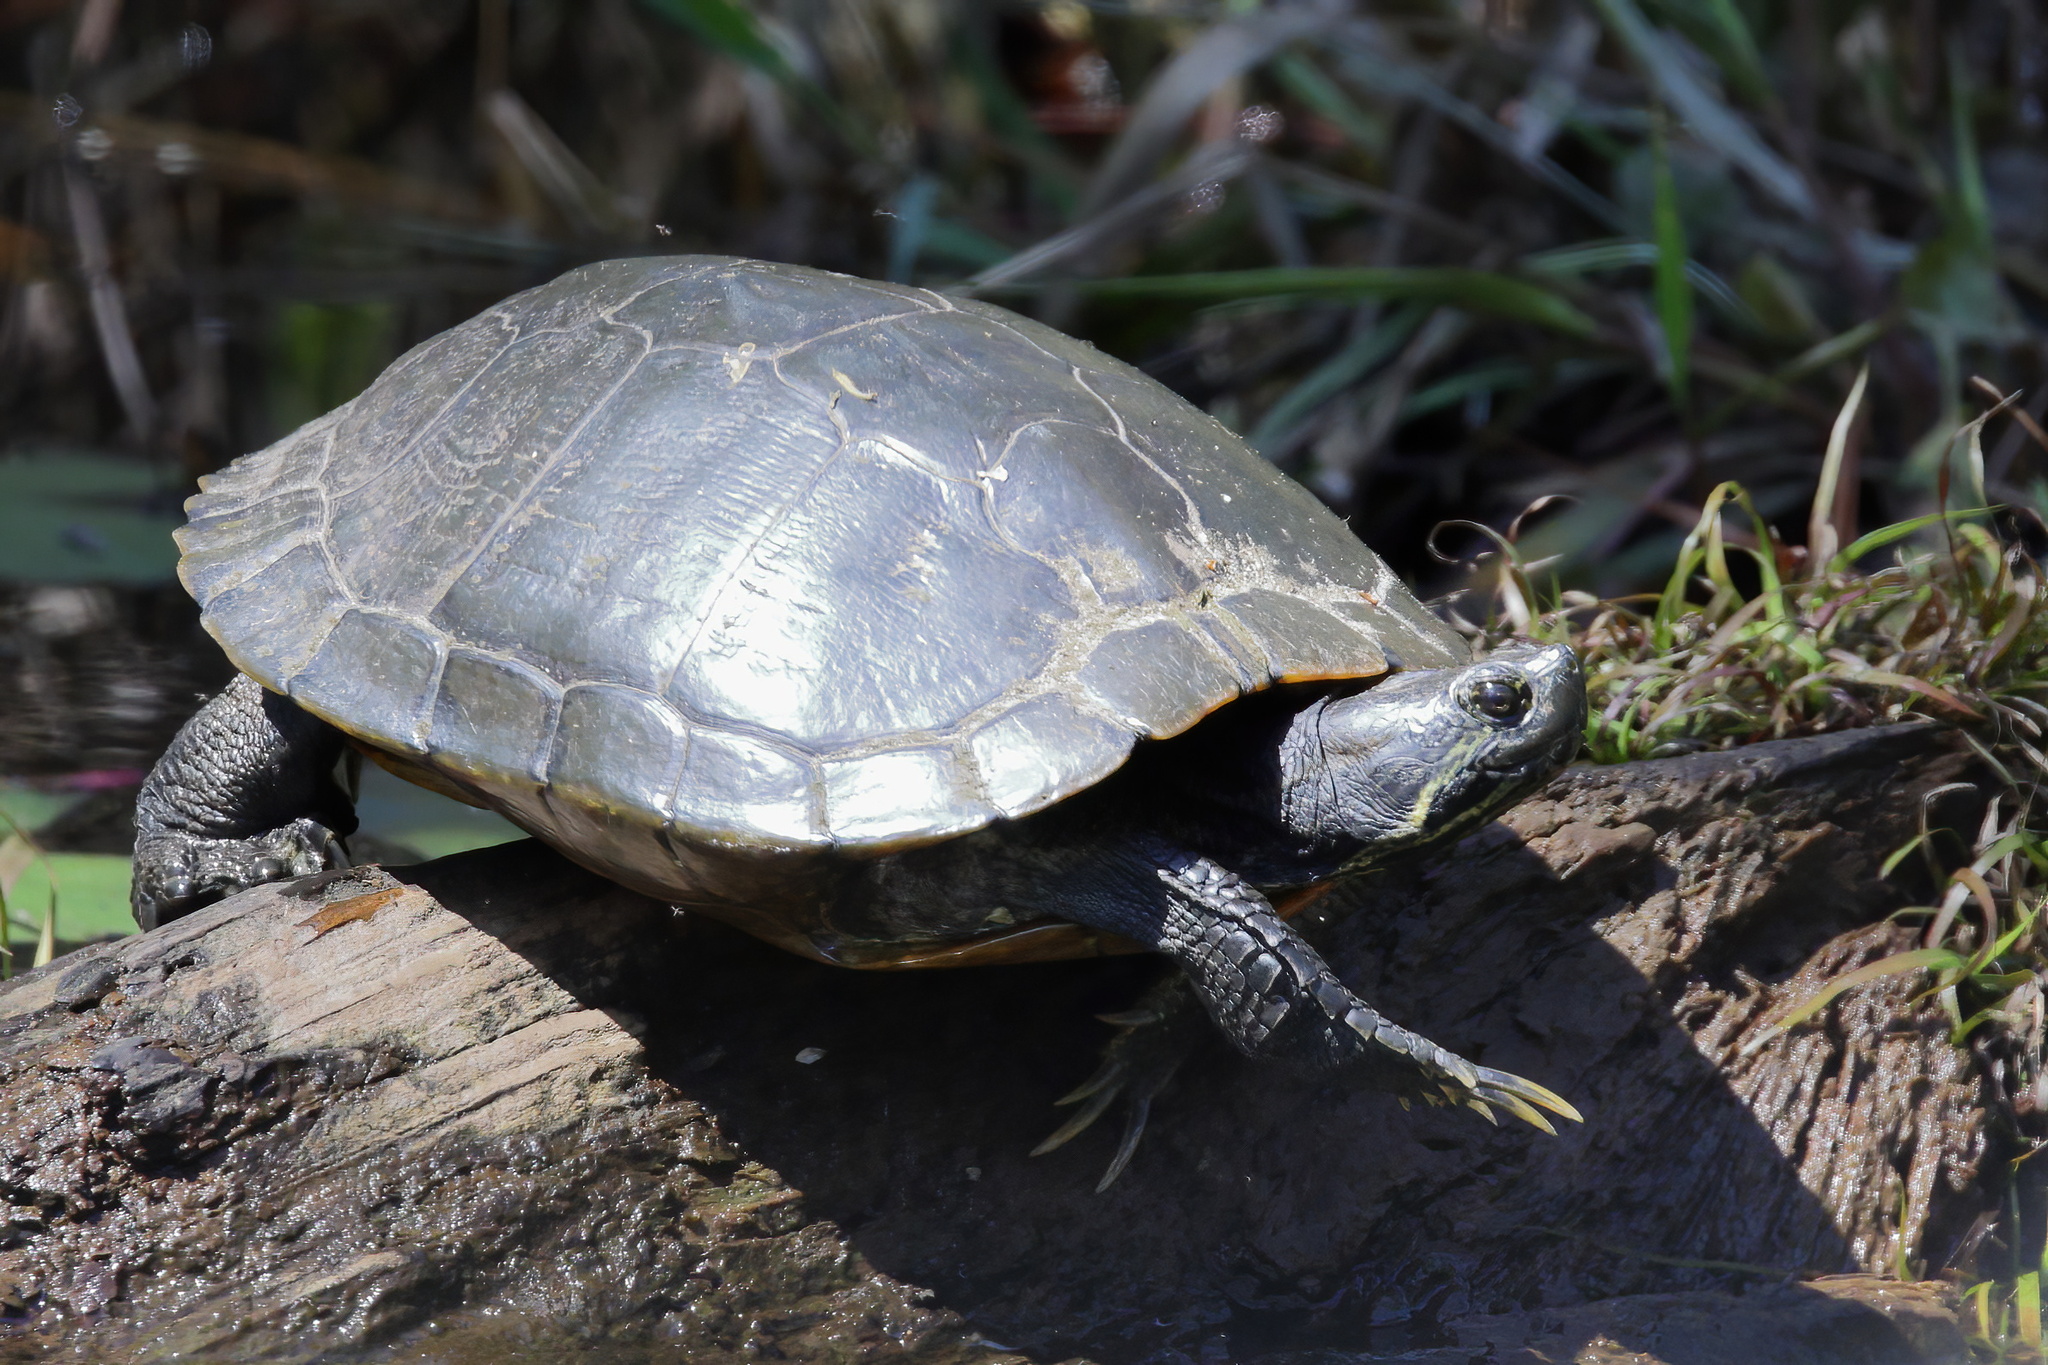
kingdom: Animalia
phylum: Chordata
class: Testudines
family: Emydidae
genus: Trachemys
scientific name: Trachemys scripta
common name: Slider
